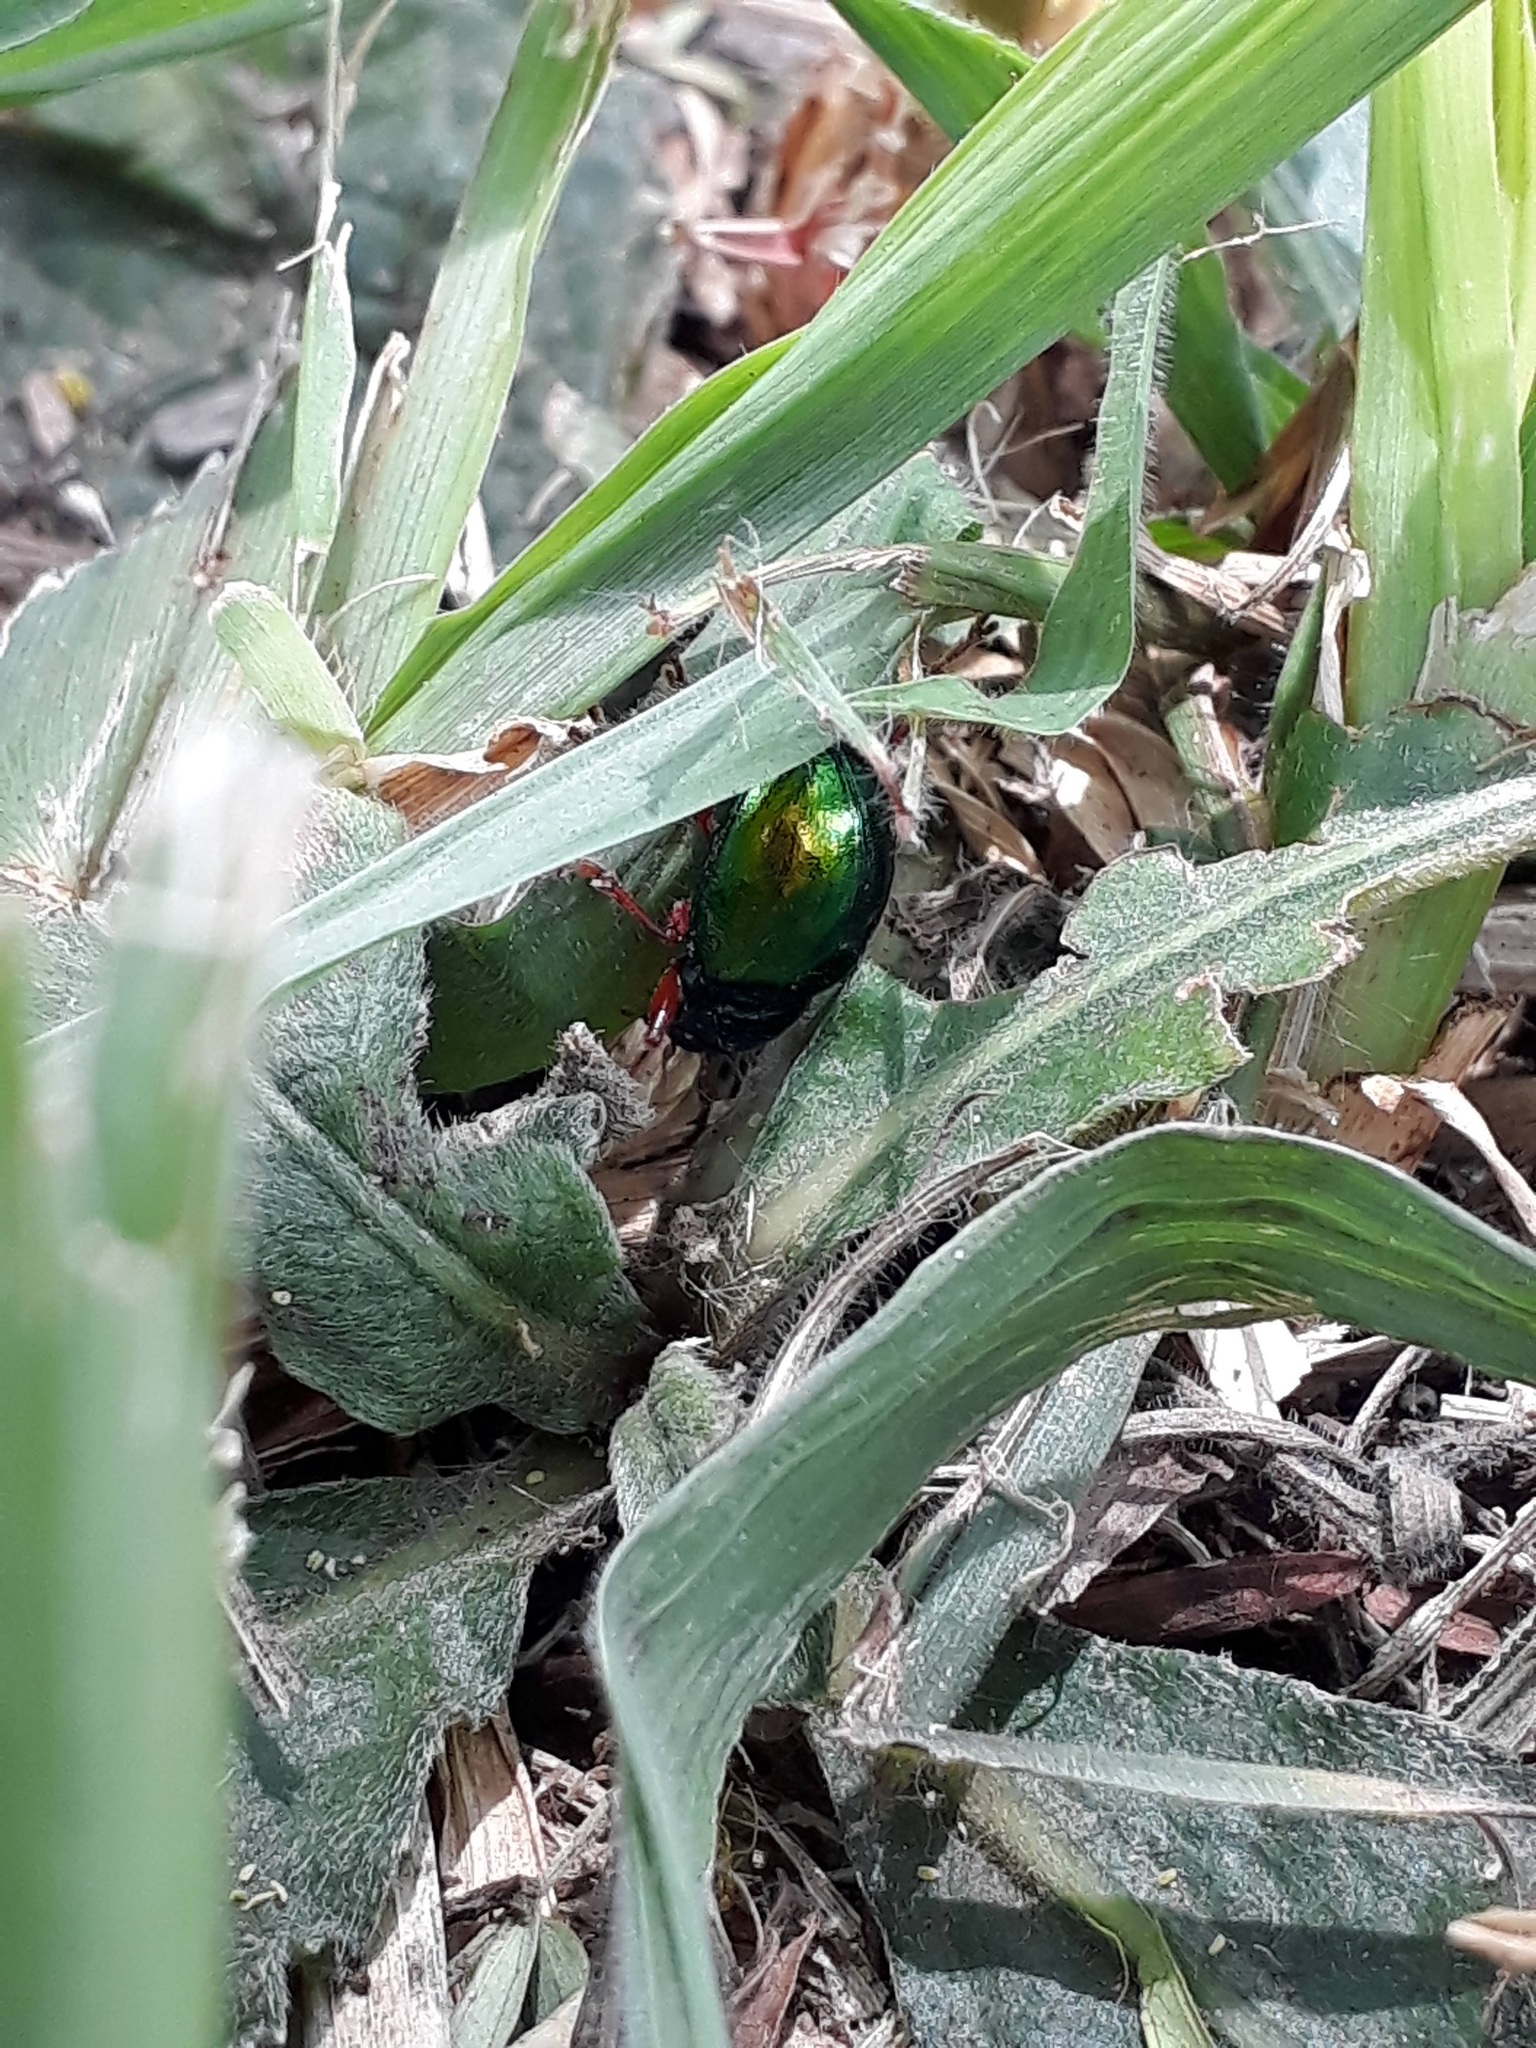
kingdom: Animalia
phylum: Arthropoda
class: Insecta
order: Coleoptera
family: Chrysomelidae
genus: Iphimeis
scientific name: Iphimeis
